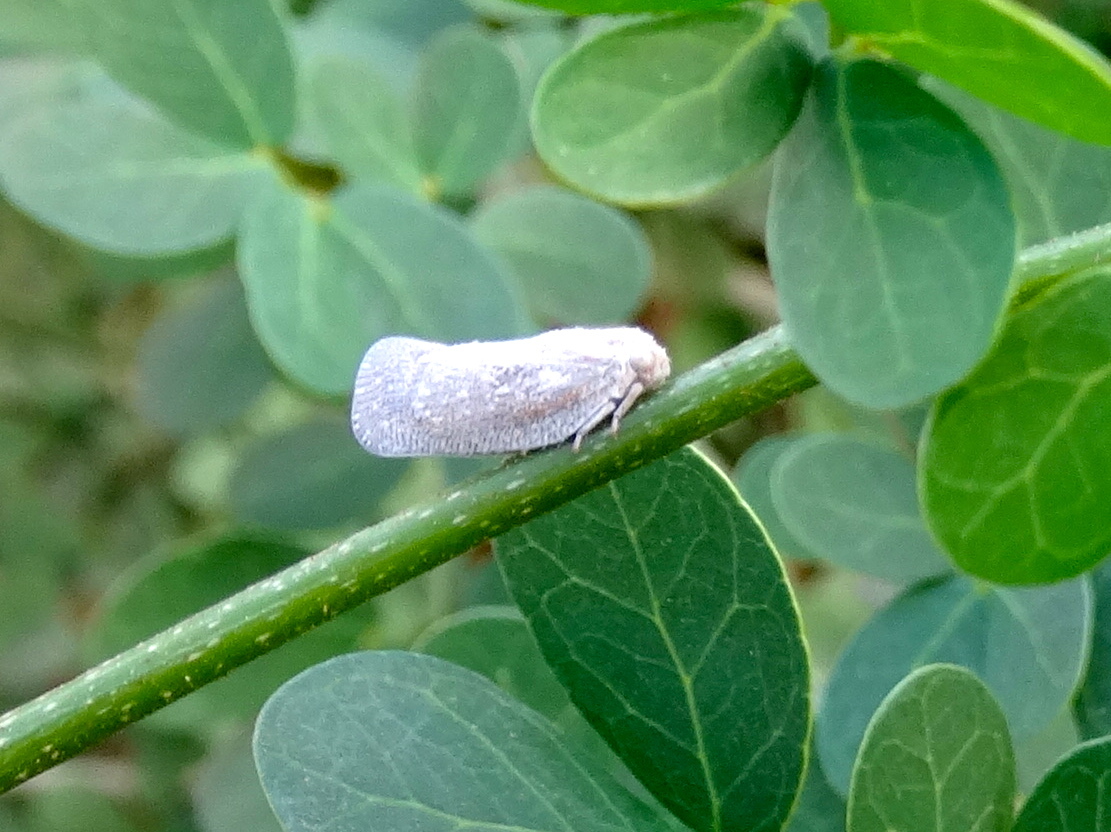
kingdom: Animalia
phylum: Arthropoda
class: Insecta
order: Hemiptera
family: Flatidae
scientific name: Flatidae
